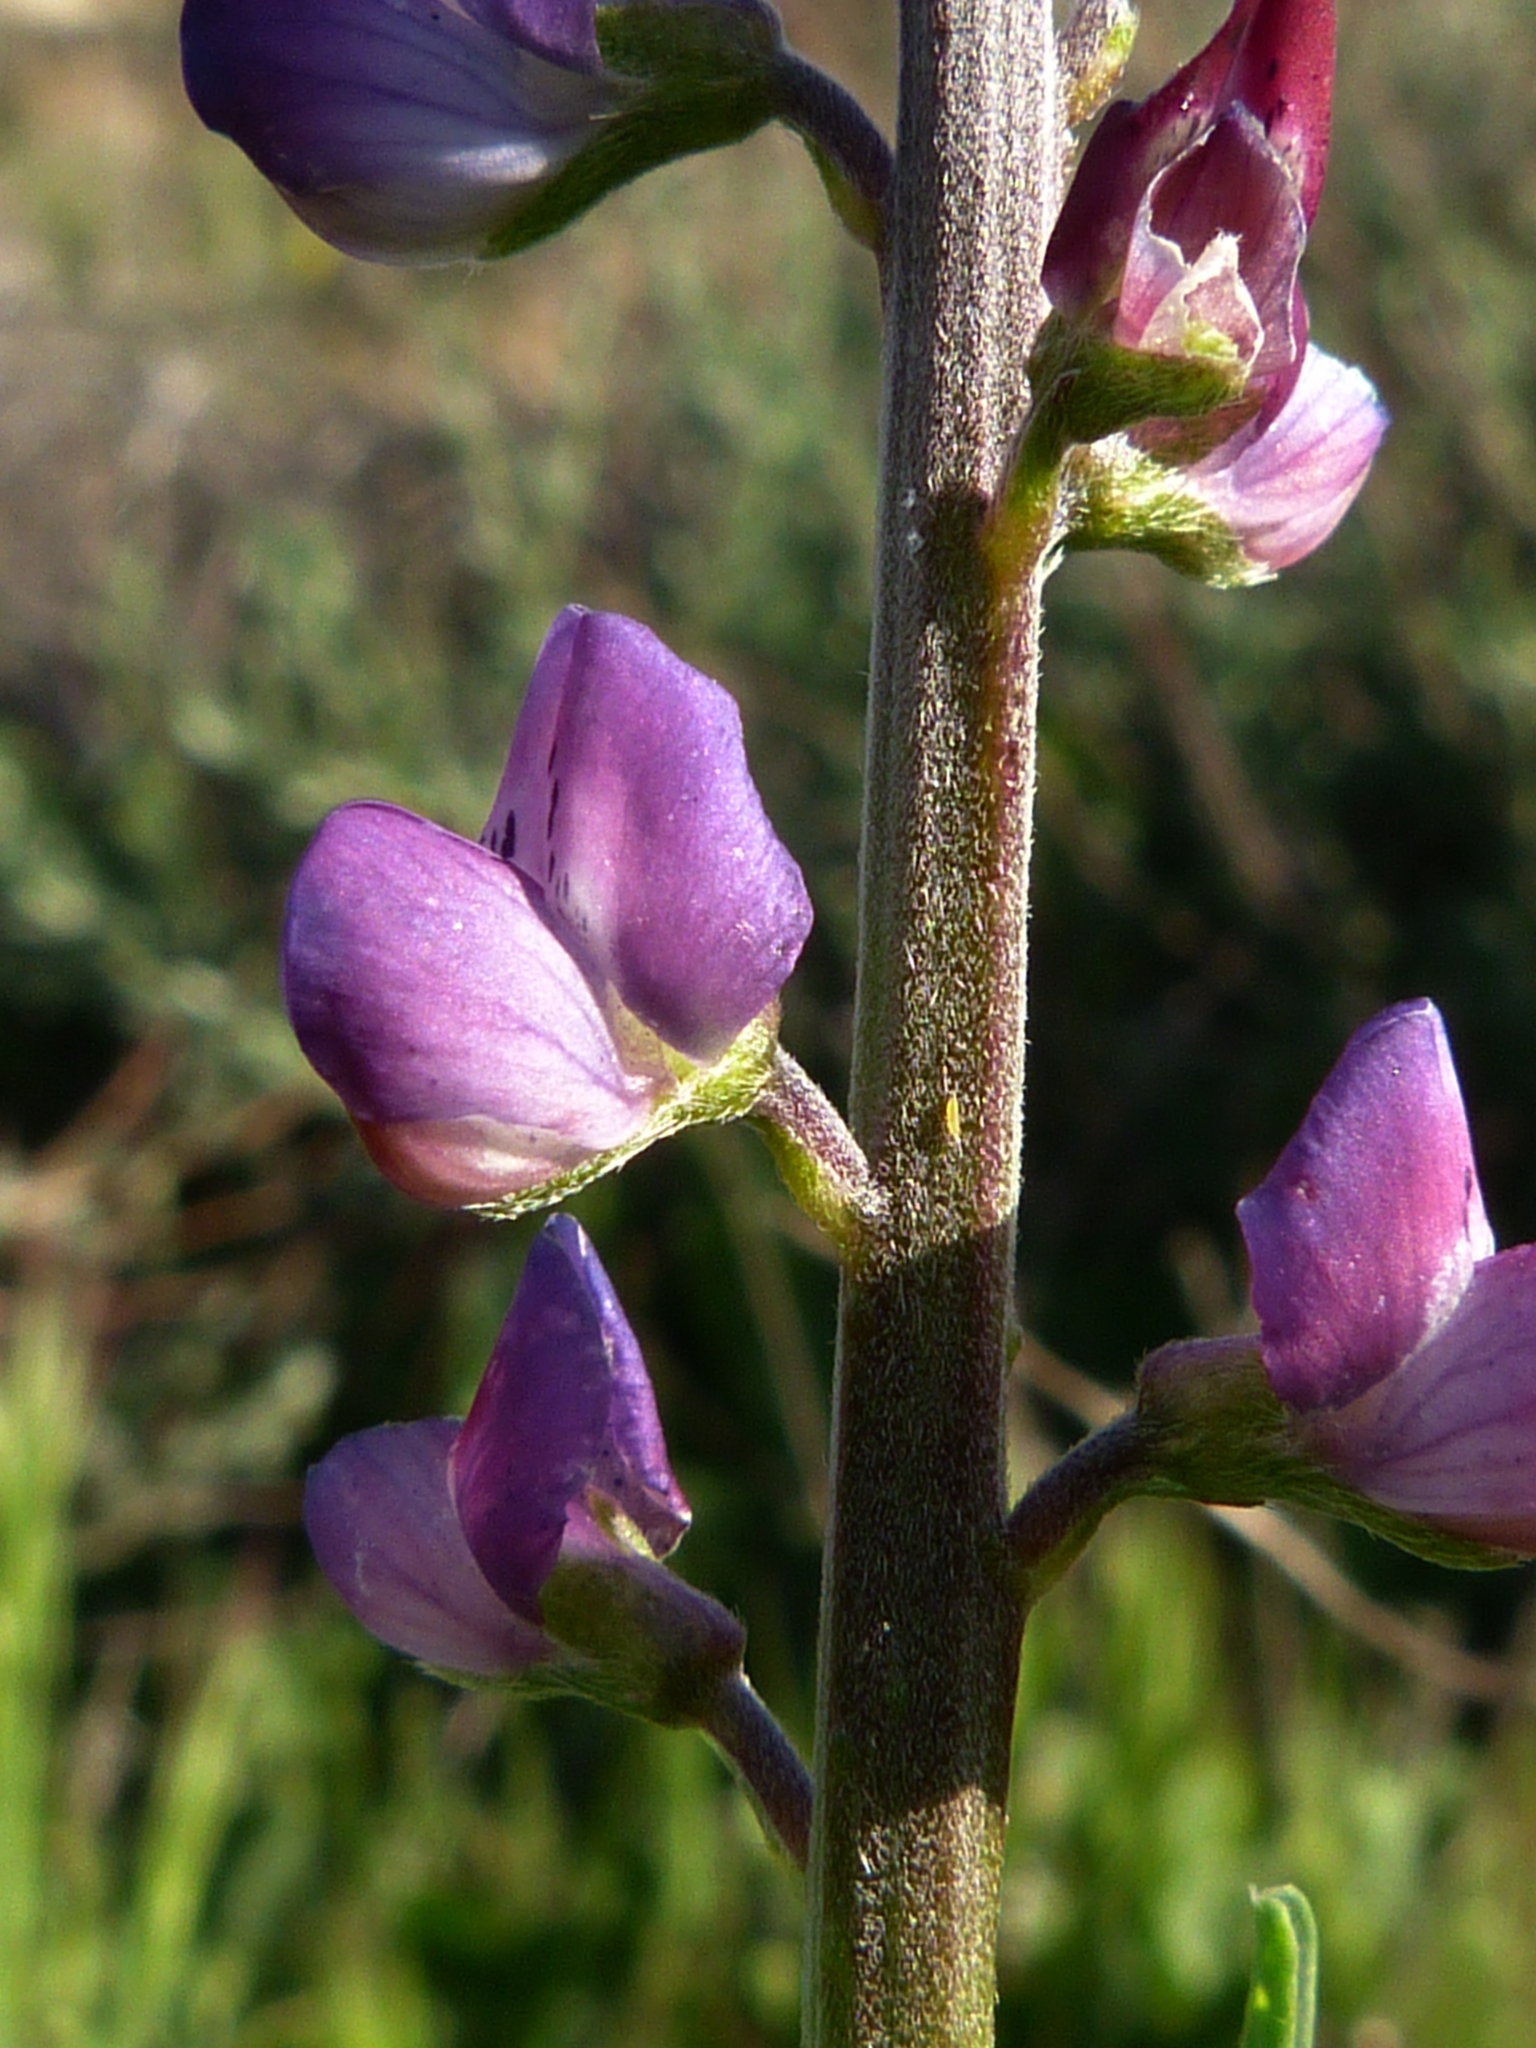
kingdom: Plantae
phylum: Tracheophyta
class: Magnoliopsida
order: Fabales
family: Fabaceae
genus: Lupinus
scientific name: Lupinus truncatus
